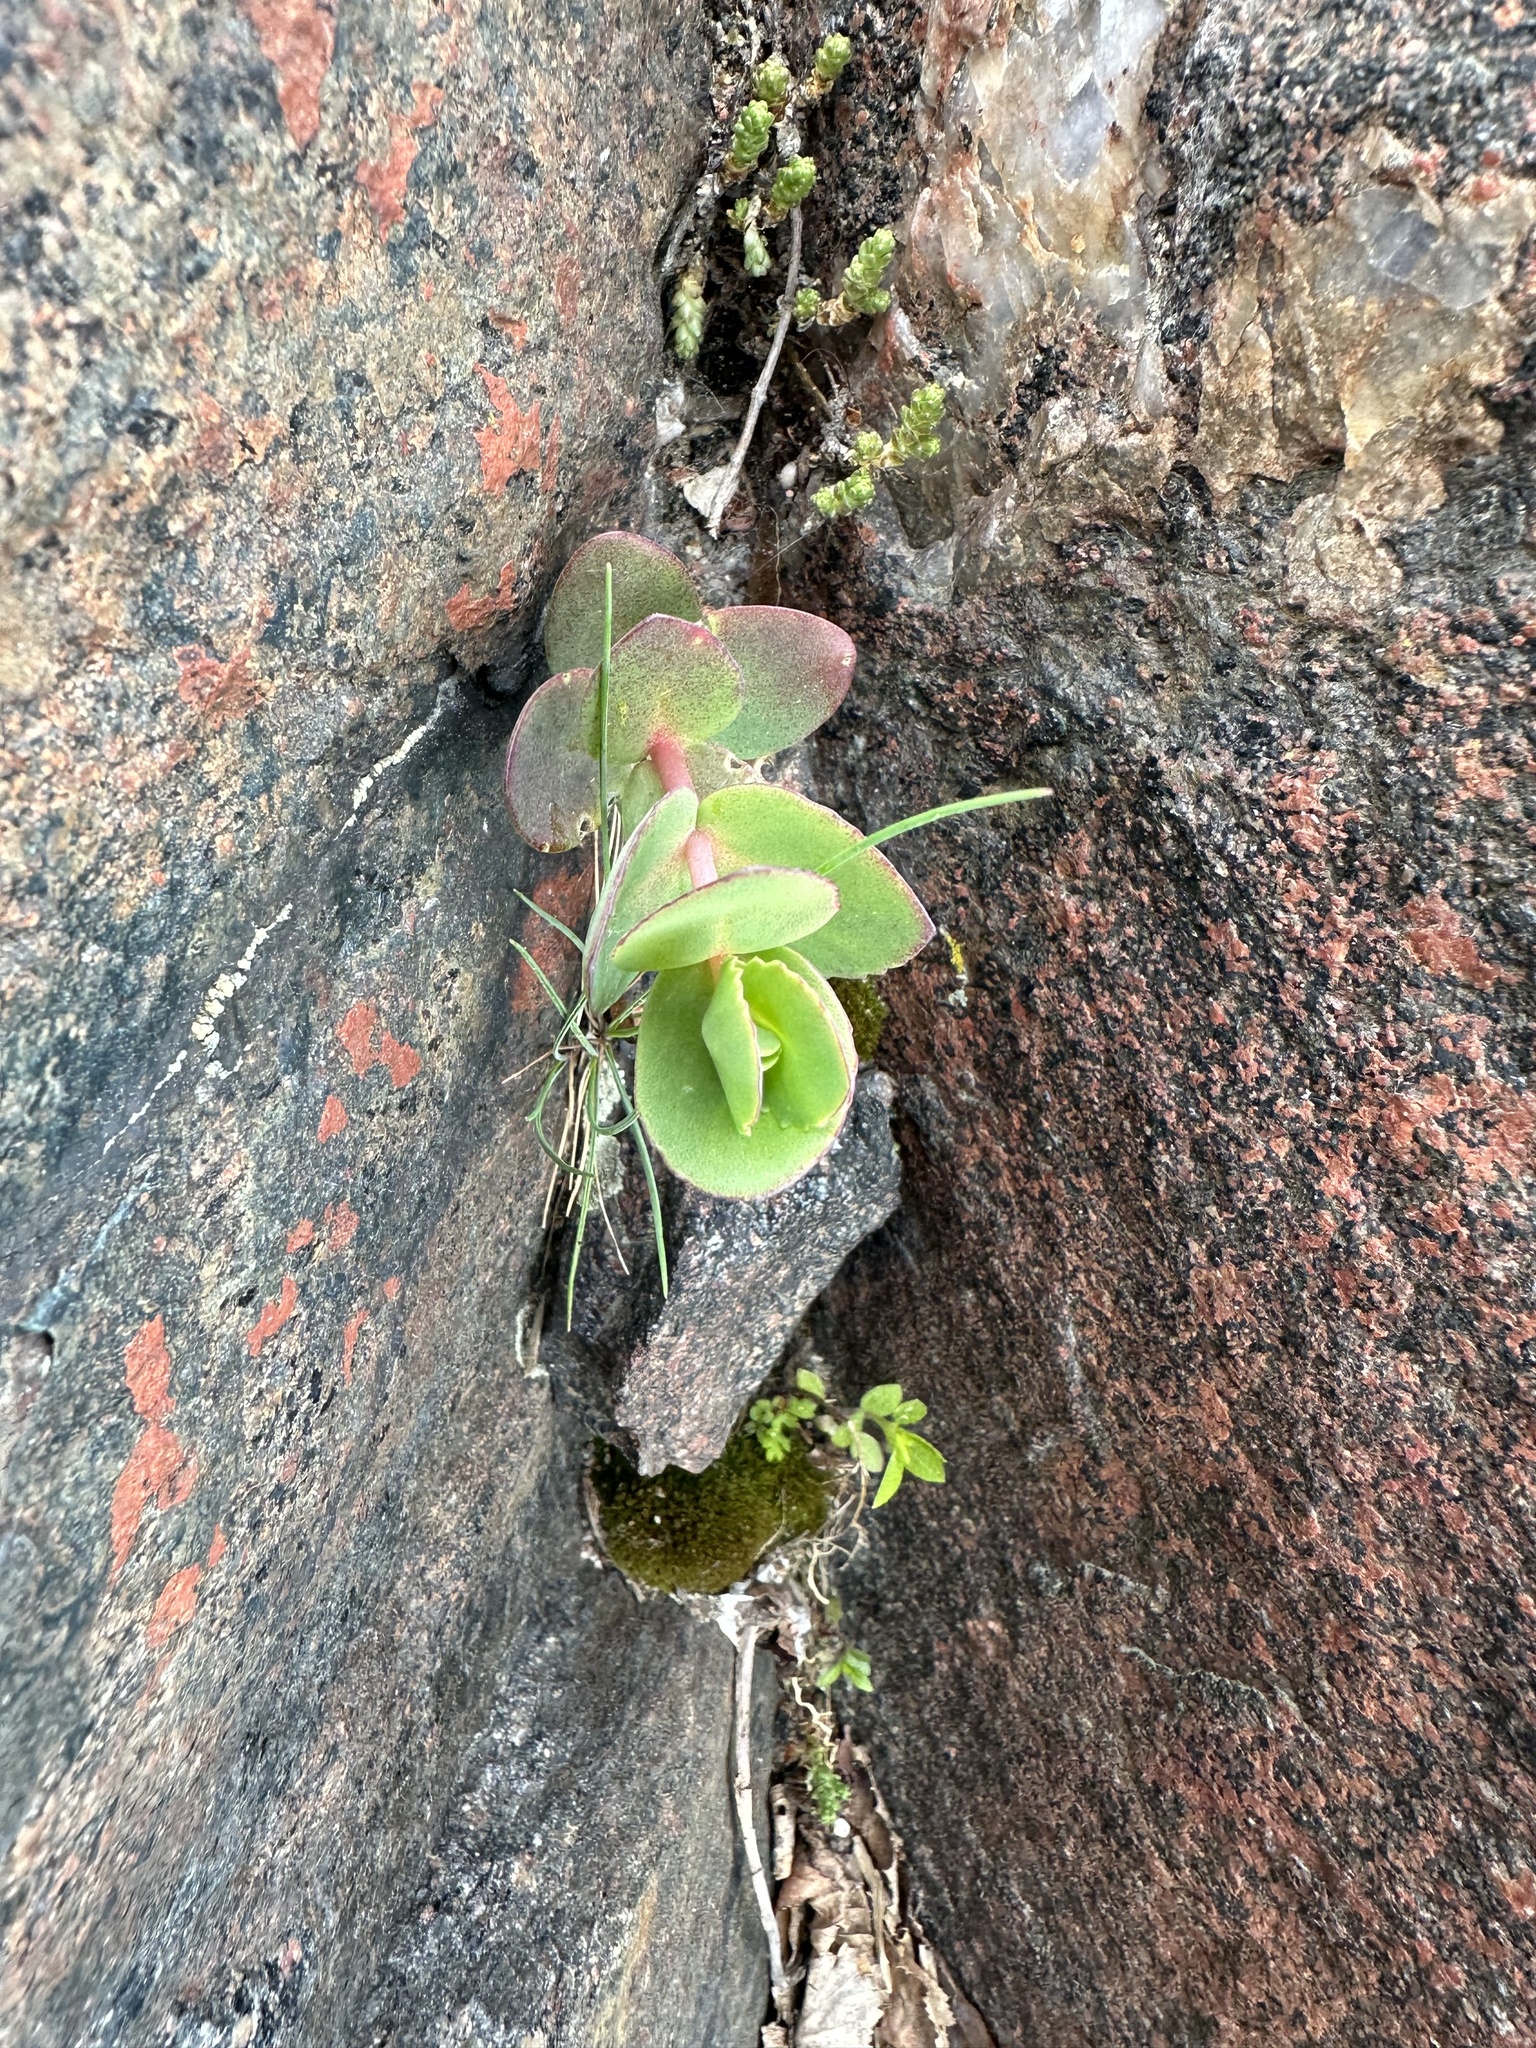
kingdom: Plantae
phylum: Tracheophyta
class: Magnoliopsida
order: Saxifragales
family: Crassulaceae
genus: Hylotelephium
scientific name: Hylotelephium maximum
